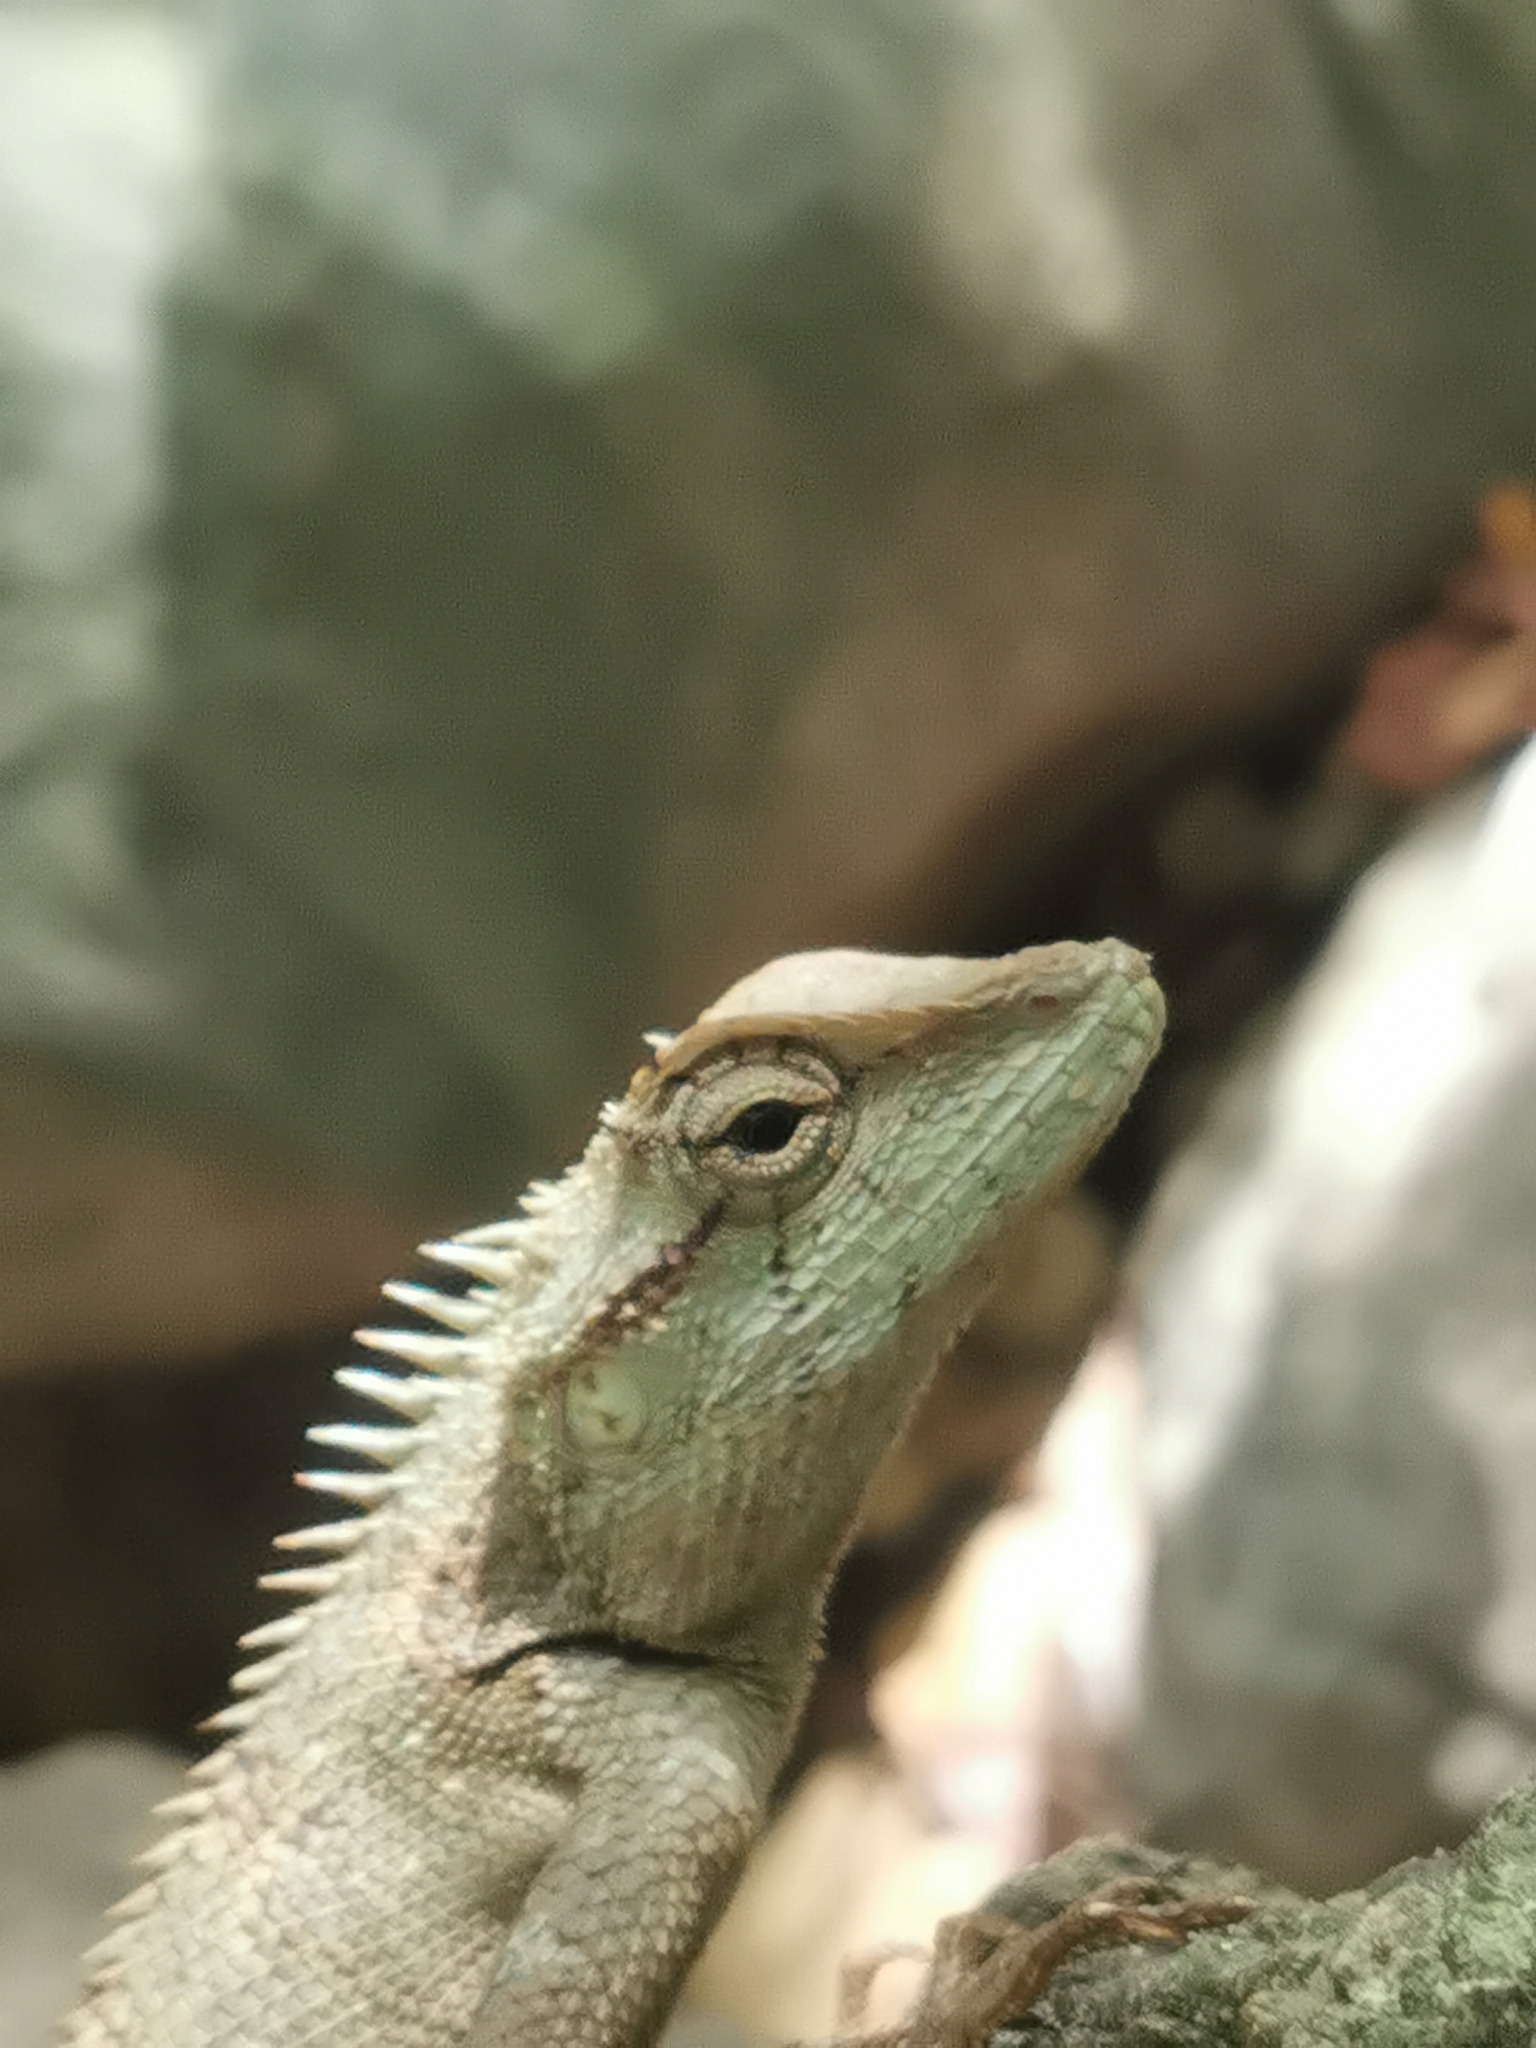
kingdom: Animalia
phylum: Chordata
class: Squamata
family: Agamidae
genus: Calotes
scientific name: Calotes emma
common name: Thailand bloodsucker
